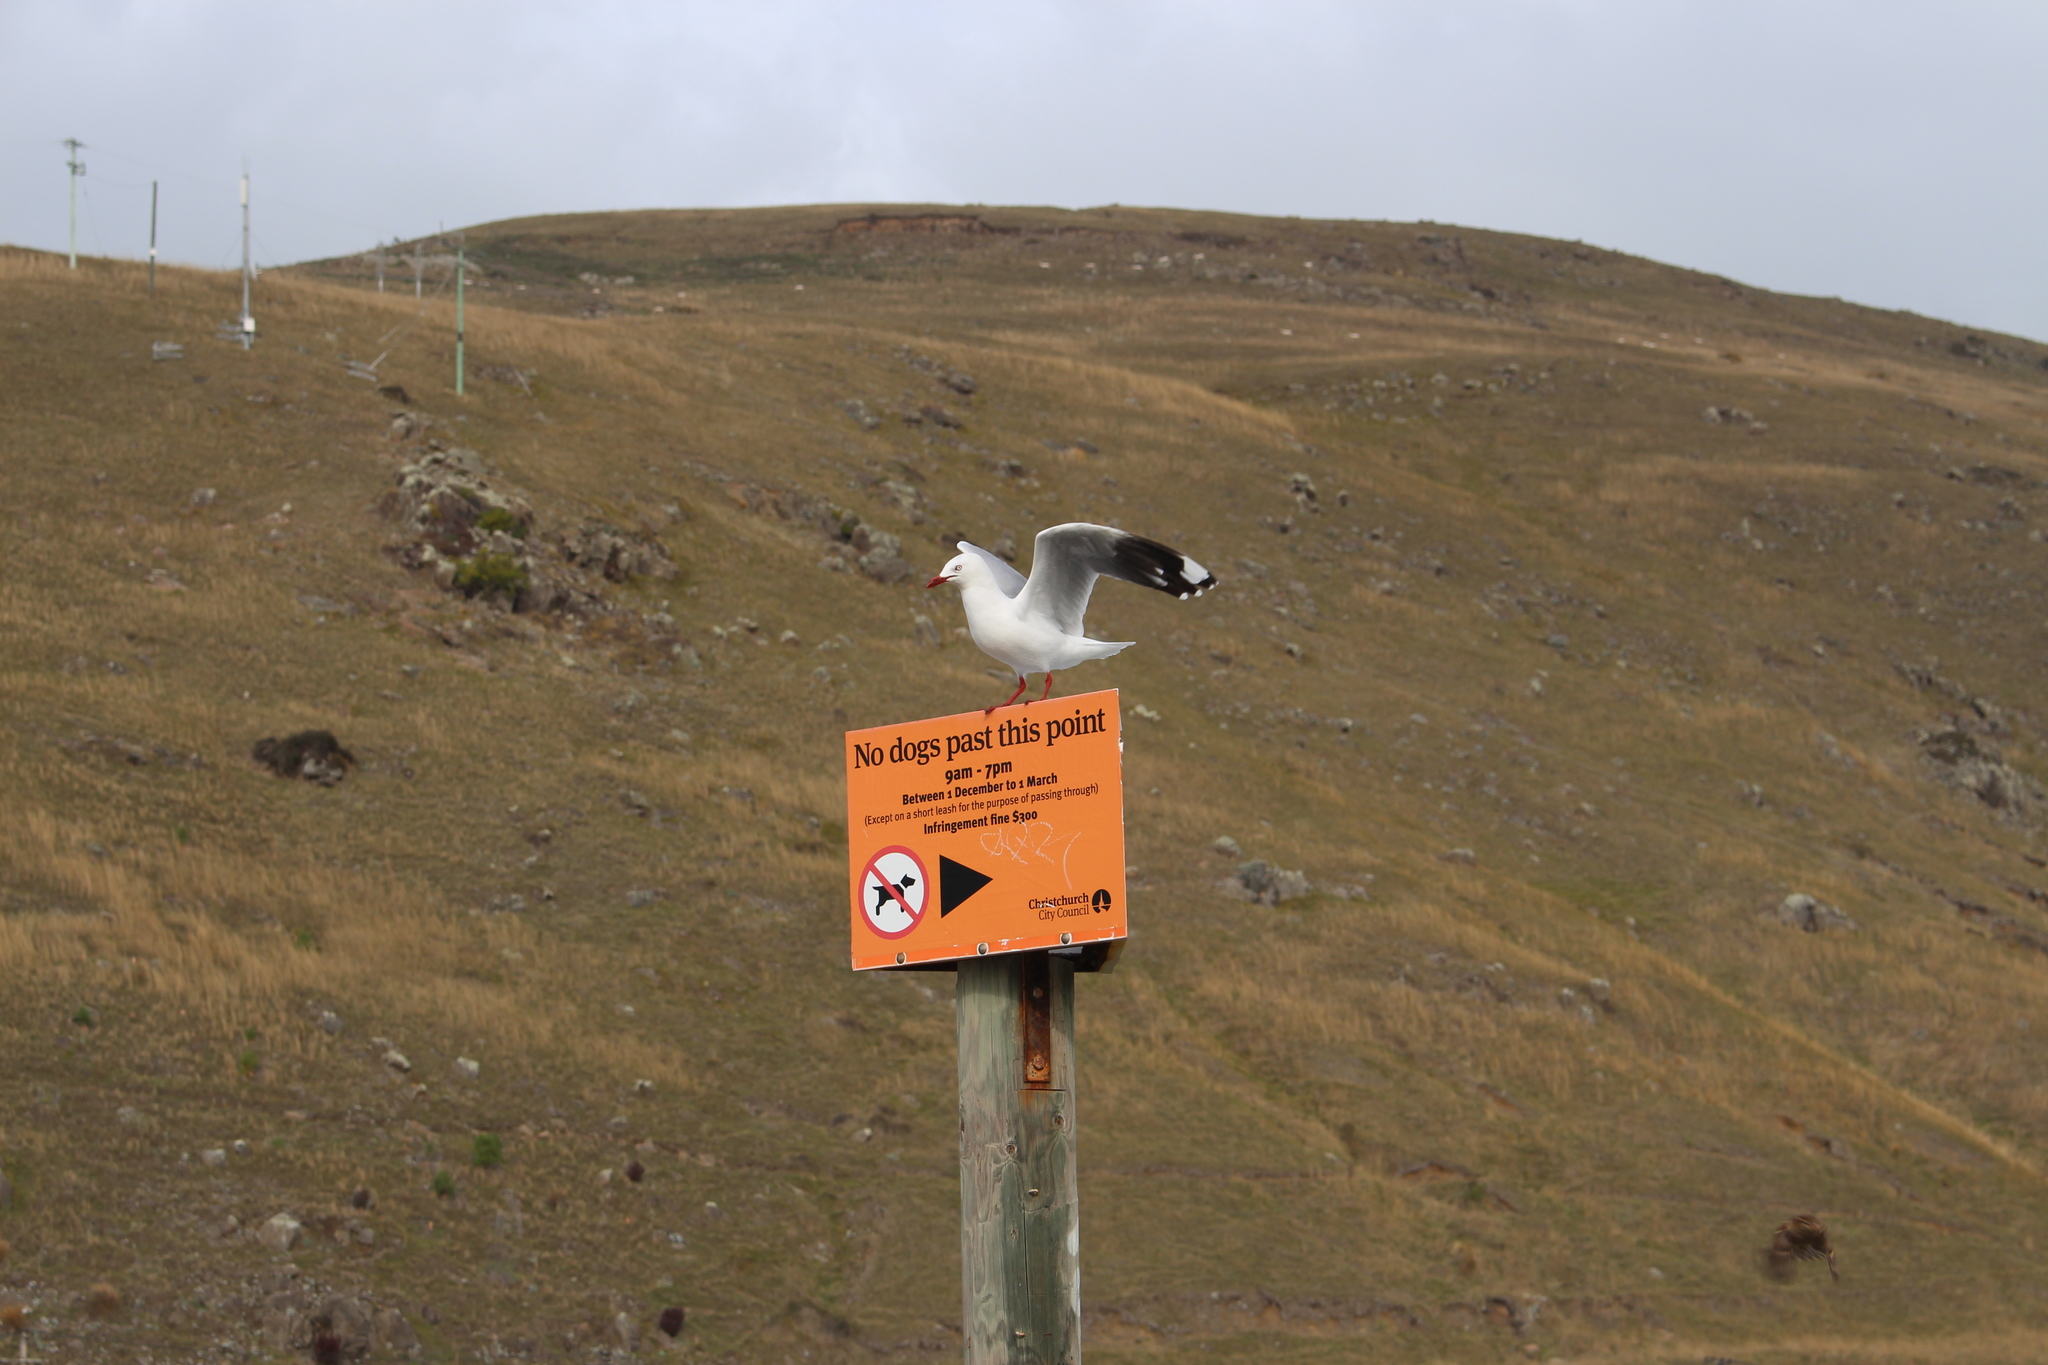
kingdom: Animalia
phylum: Chordata
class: Aves
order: Charadriiformes
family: Laridae
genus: Chroicocephalus
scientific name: Chroicocephalus novaehollandiae
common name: Silver gull
